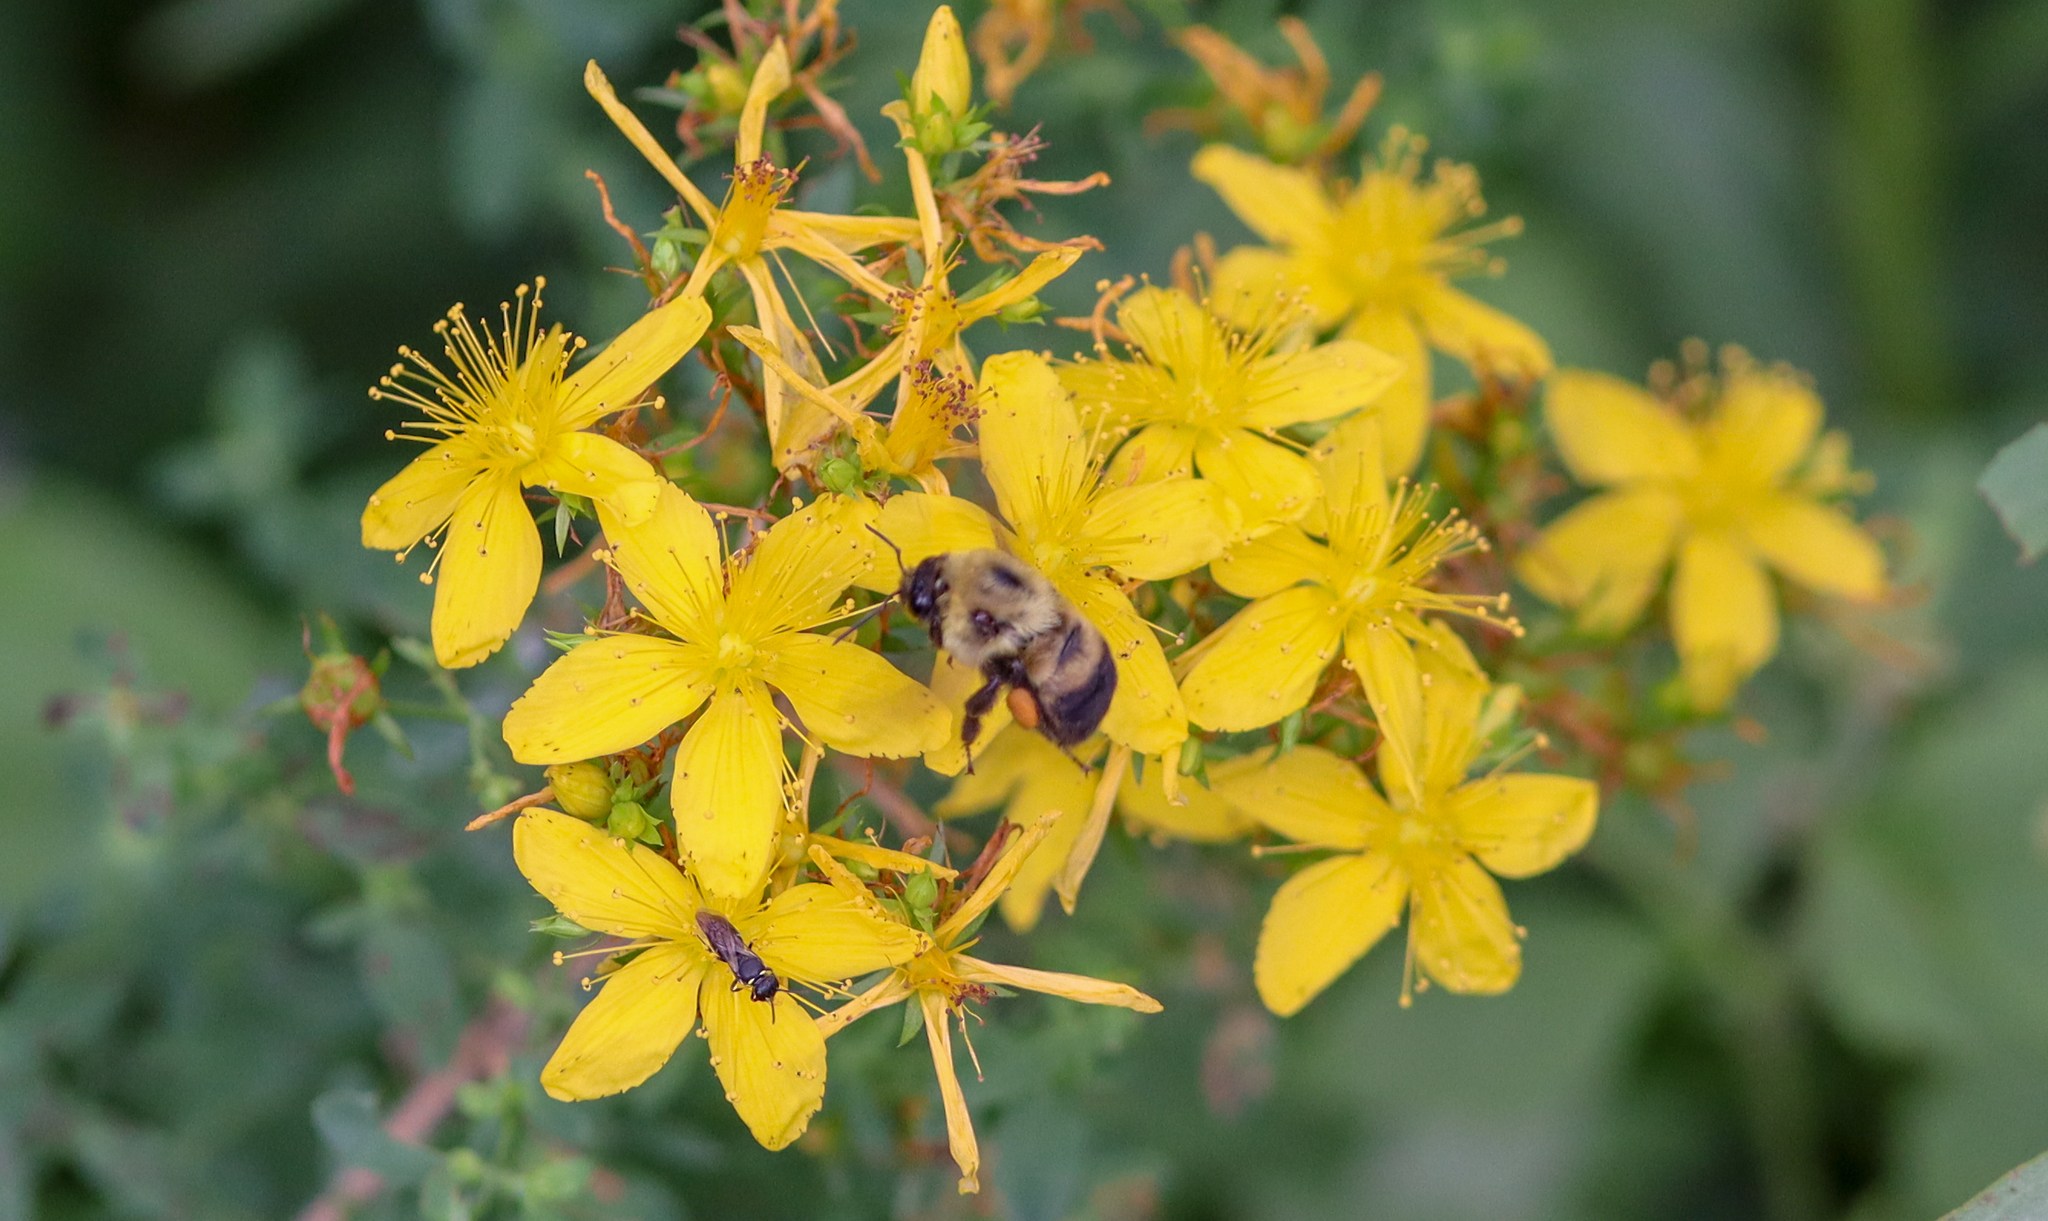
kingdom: Animalia
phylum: Arthropoda
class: Insecta
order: Hymenoptera
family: Apidae
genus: Bombus
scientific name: Bombus griseocollis
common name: Brown-belted bumble bee
